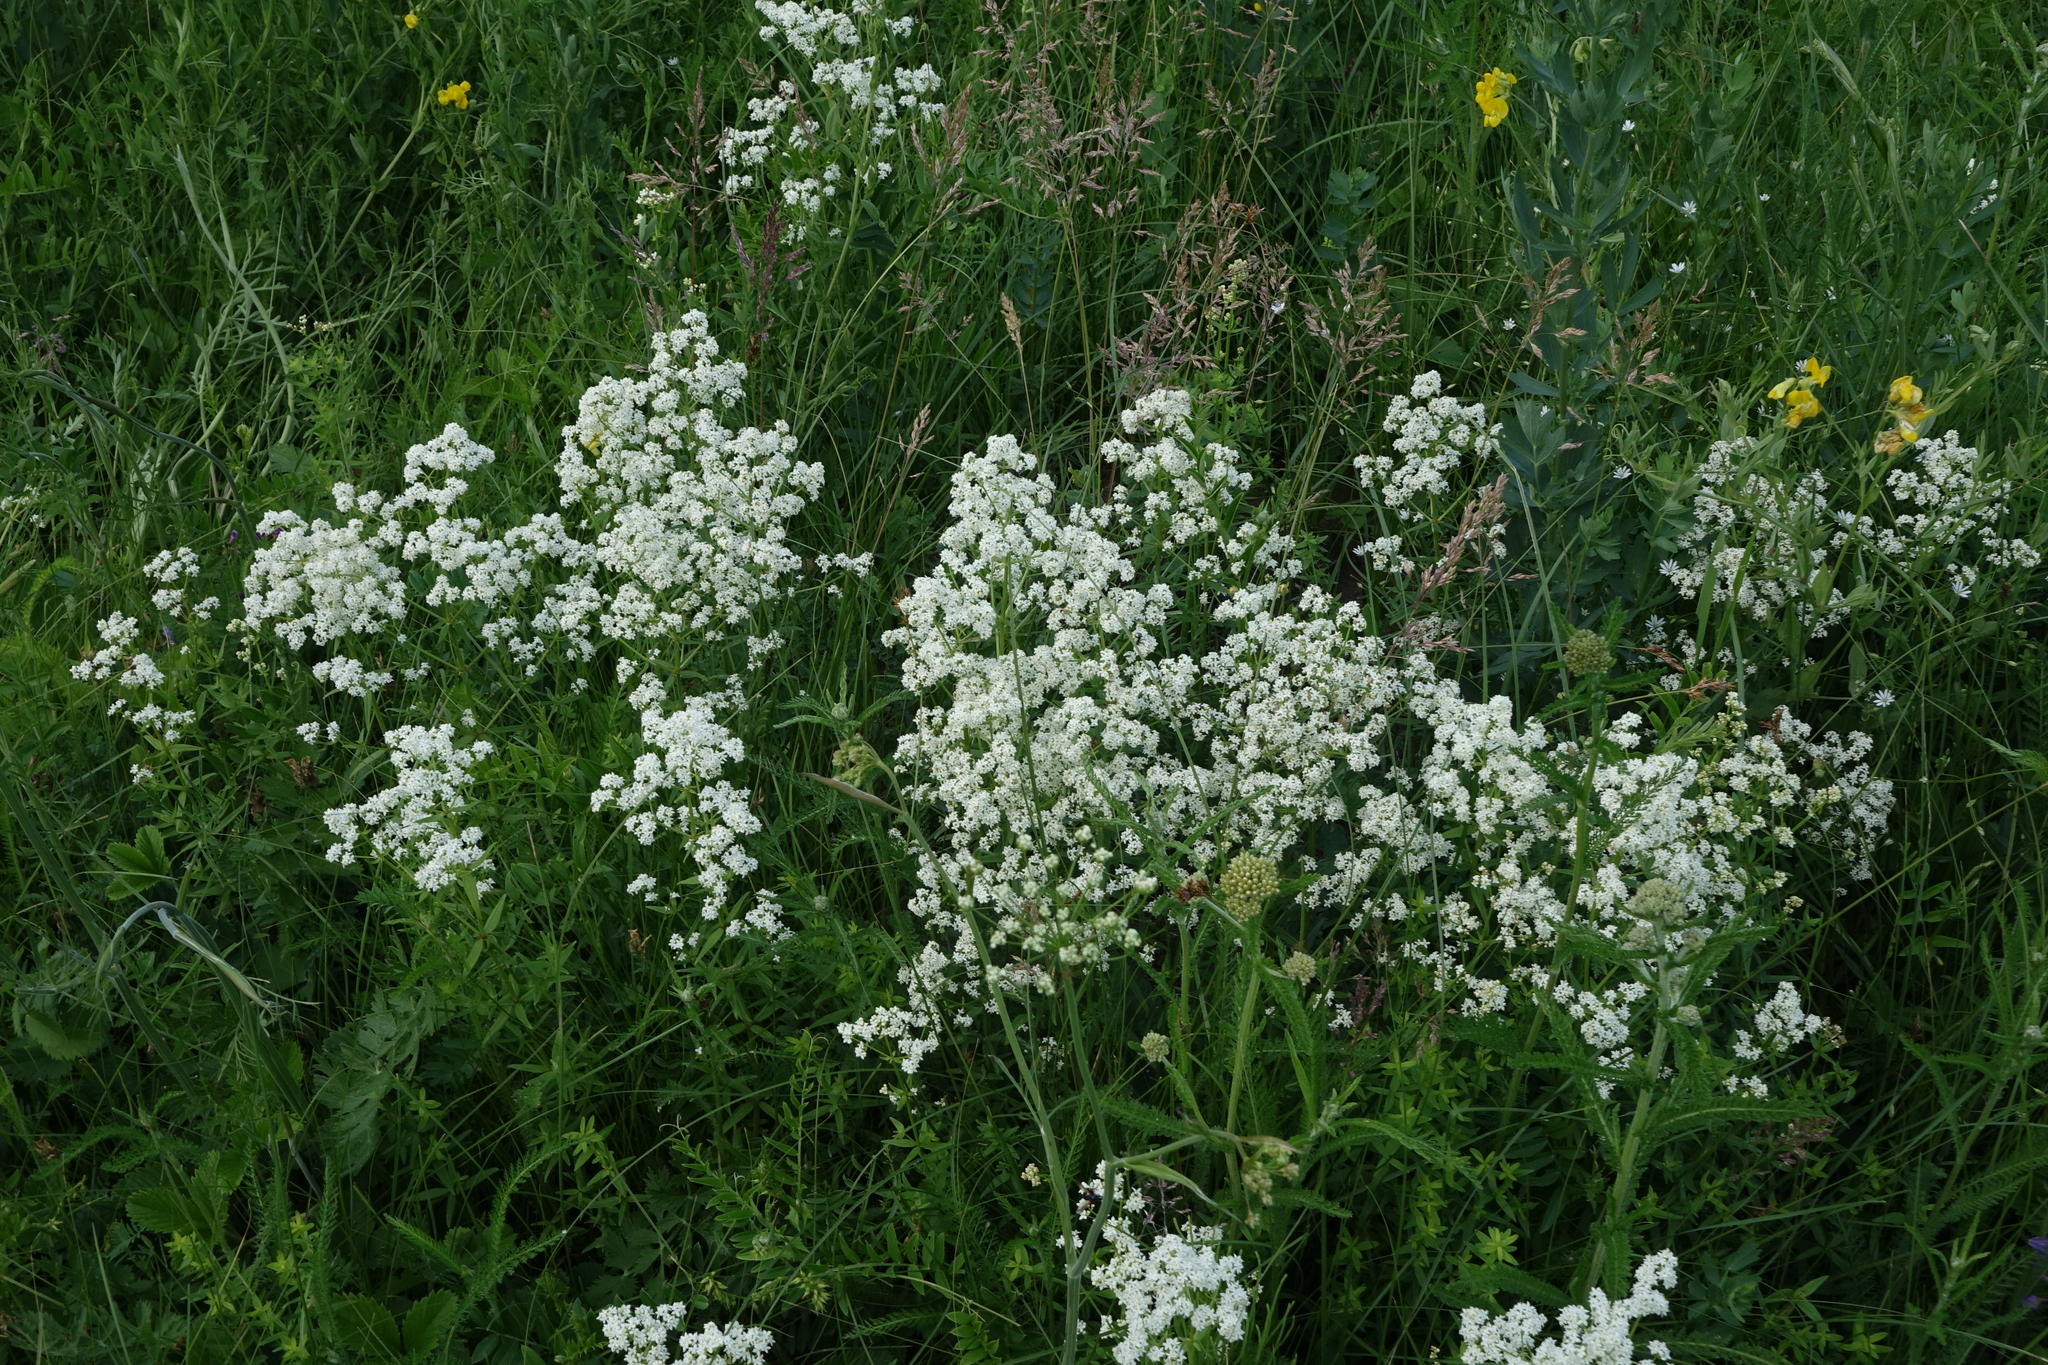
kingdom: Plantae
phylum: Tracheophyta
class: Magnoliopsida
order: Gentianales
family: Rubiaceae
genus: Galium
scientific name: Galium boreale
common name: Northern bedstraw
